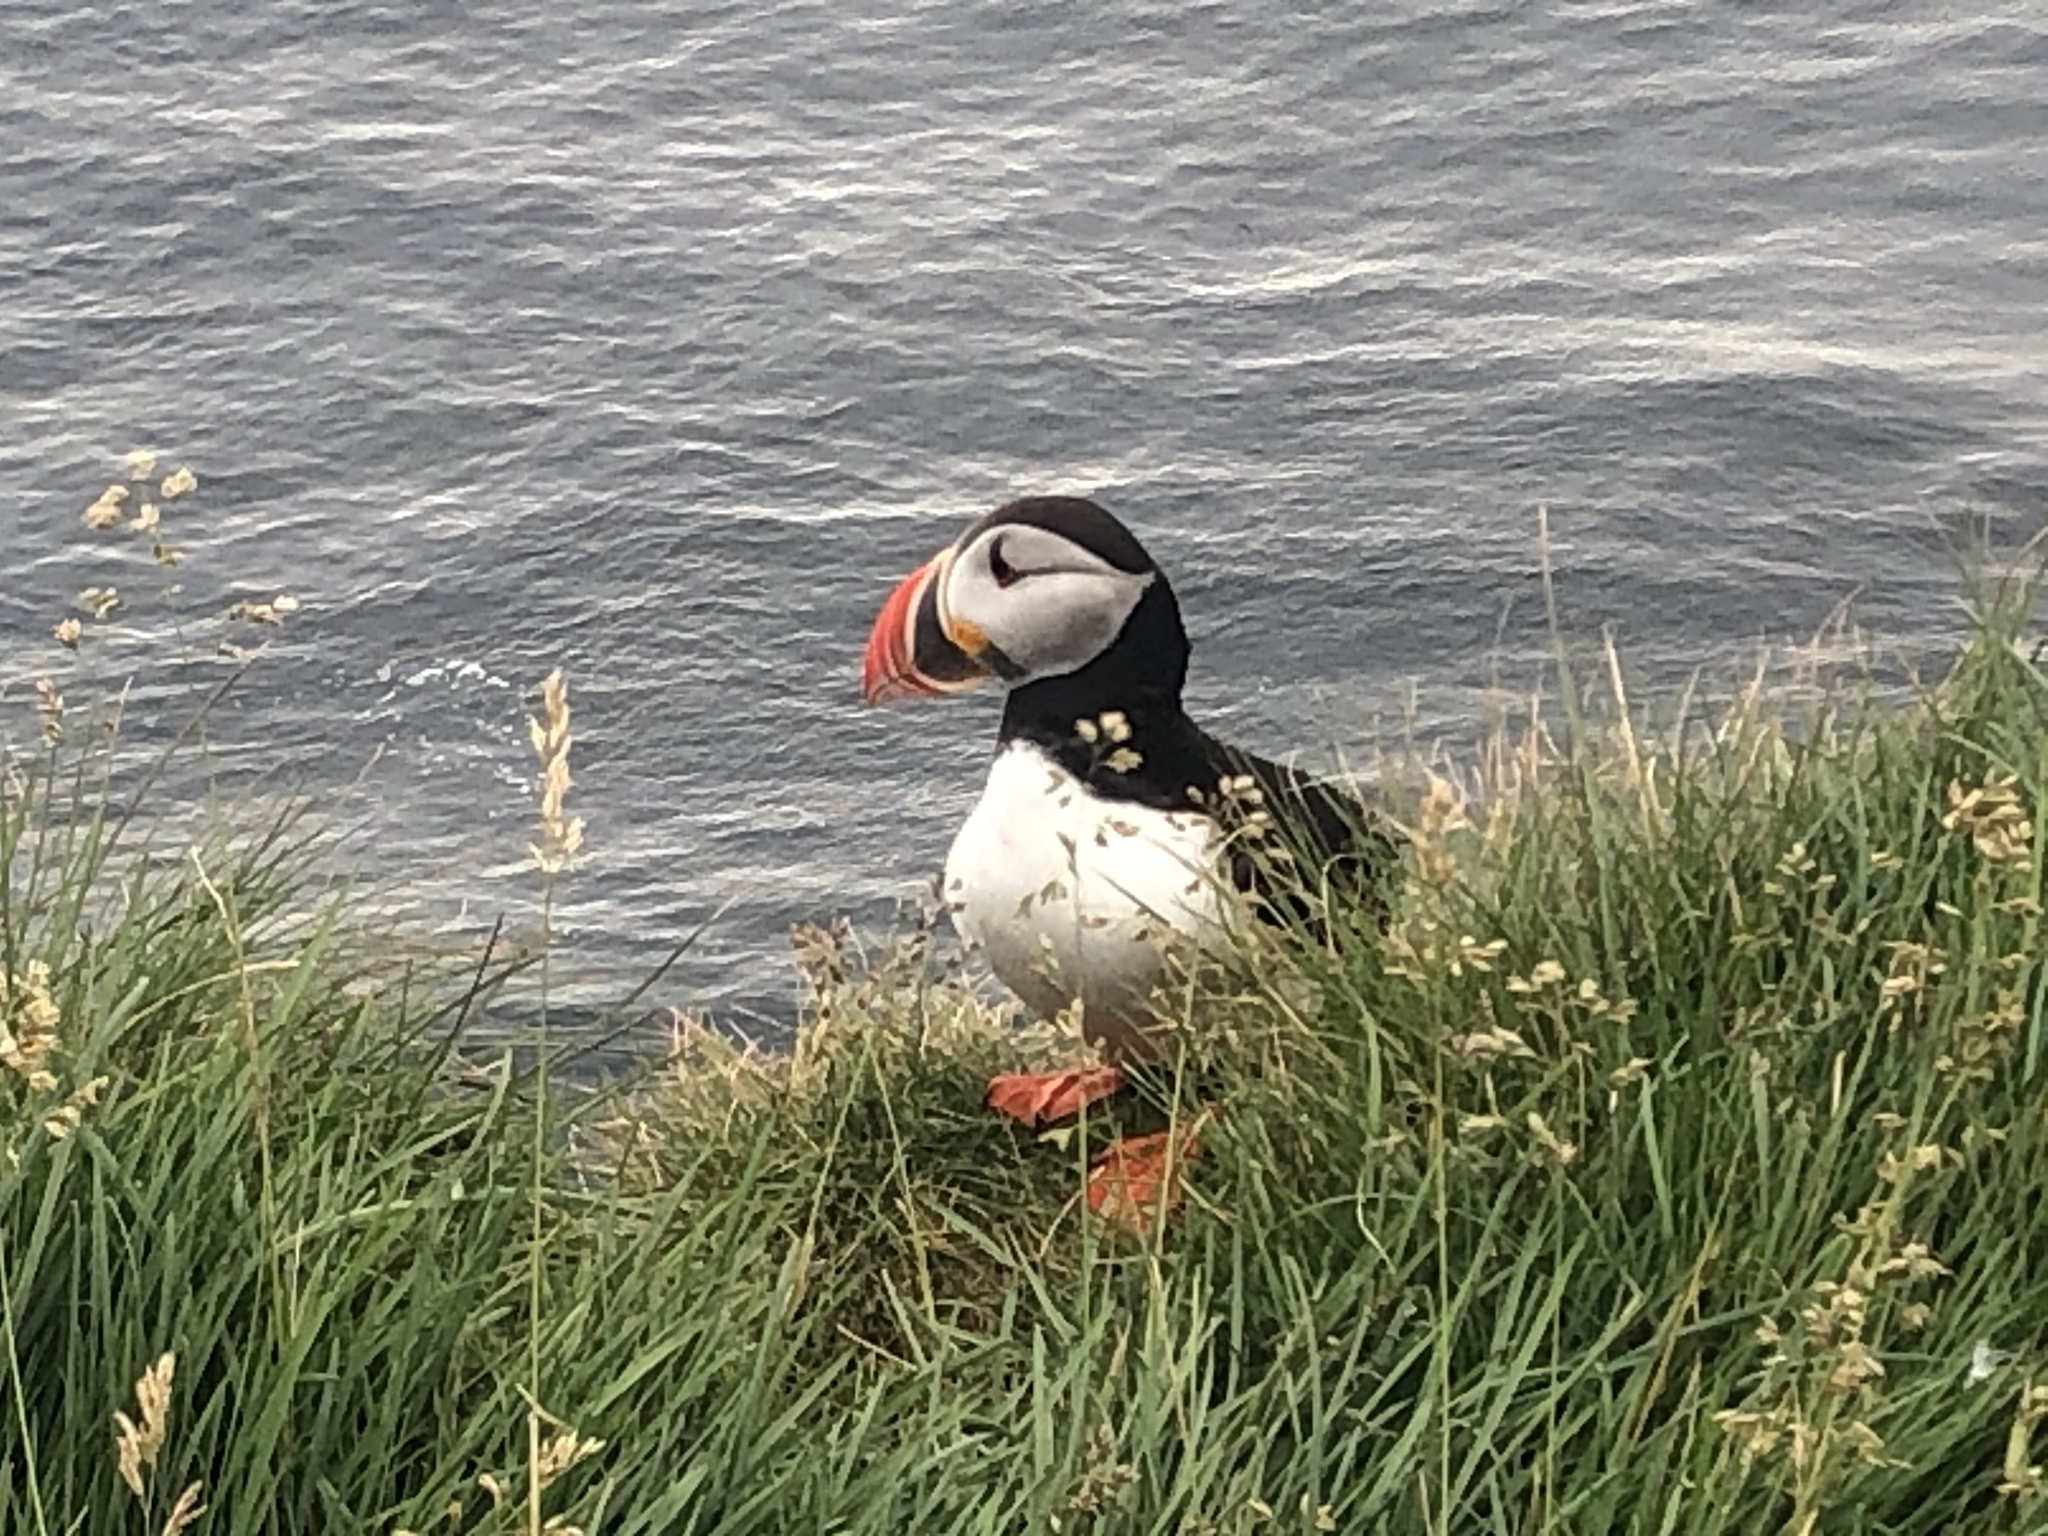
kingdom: Animalia
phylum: Chordata
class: Aves
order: Charadriiformes
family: Alcidae
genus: Fratercula
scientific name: Fratercula arctica
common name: Atlantic puffin
